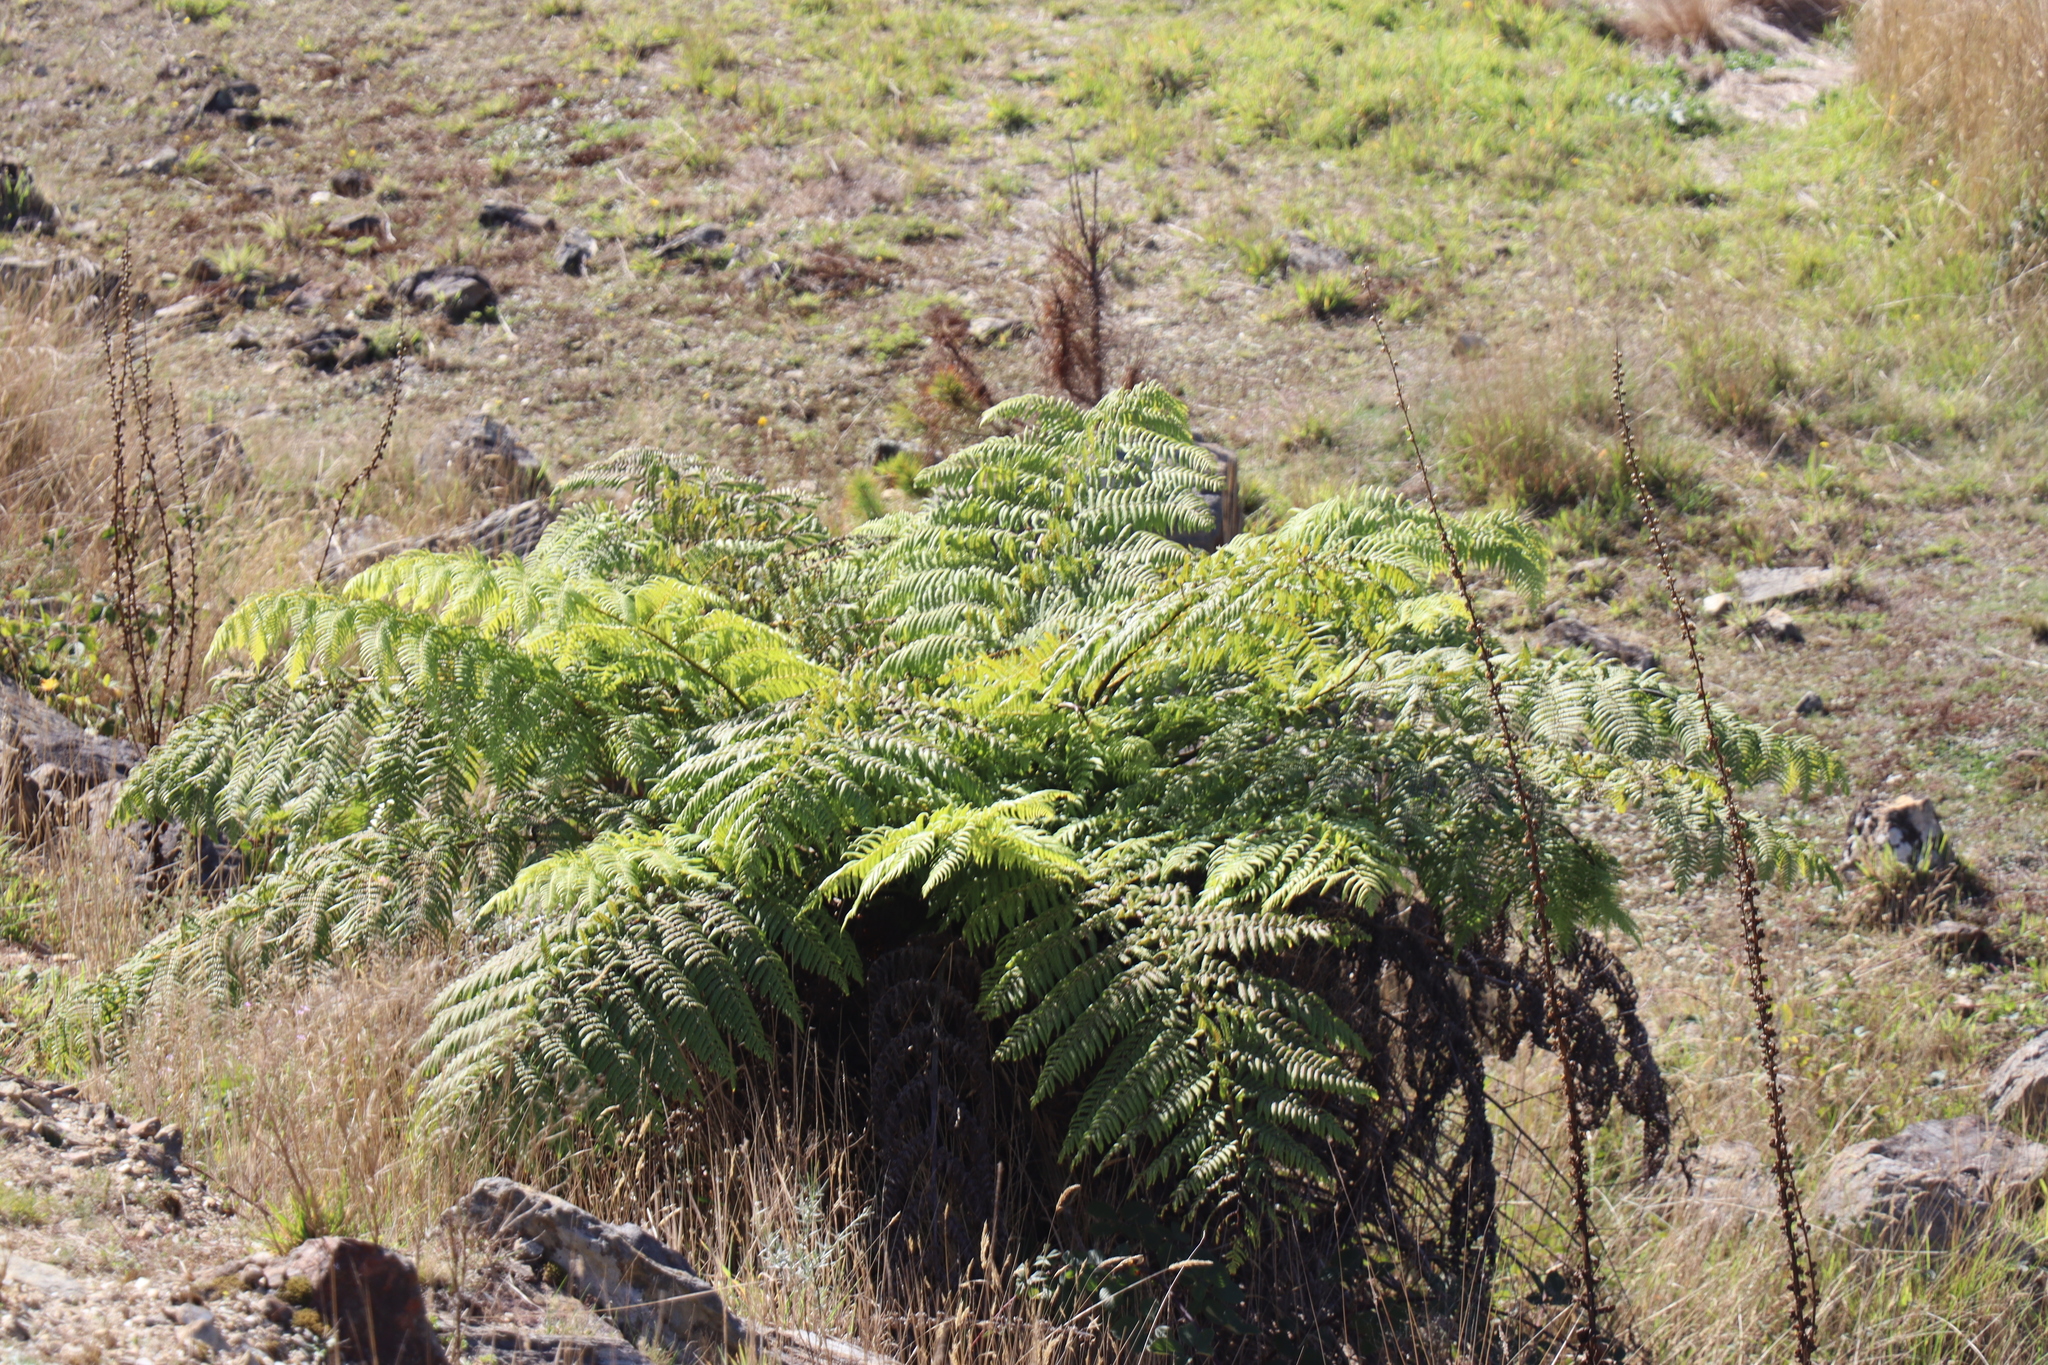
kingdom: Plantae
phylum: Tracheophyta
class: Polypodiopsida
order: Cyatheales
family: Cyatheaceae
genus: Alsophila
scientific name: Alsophila australis
